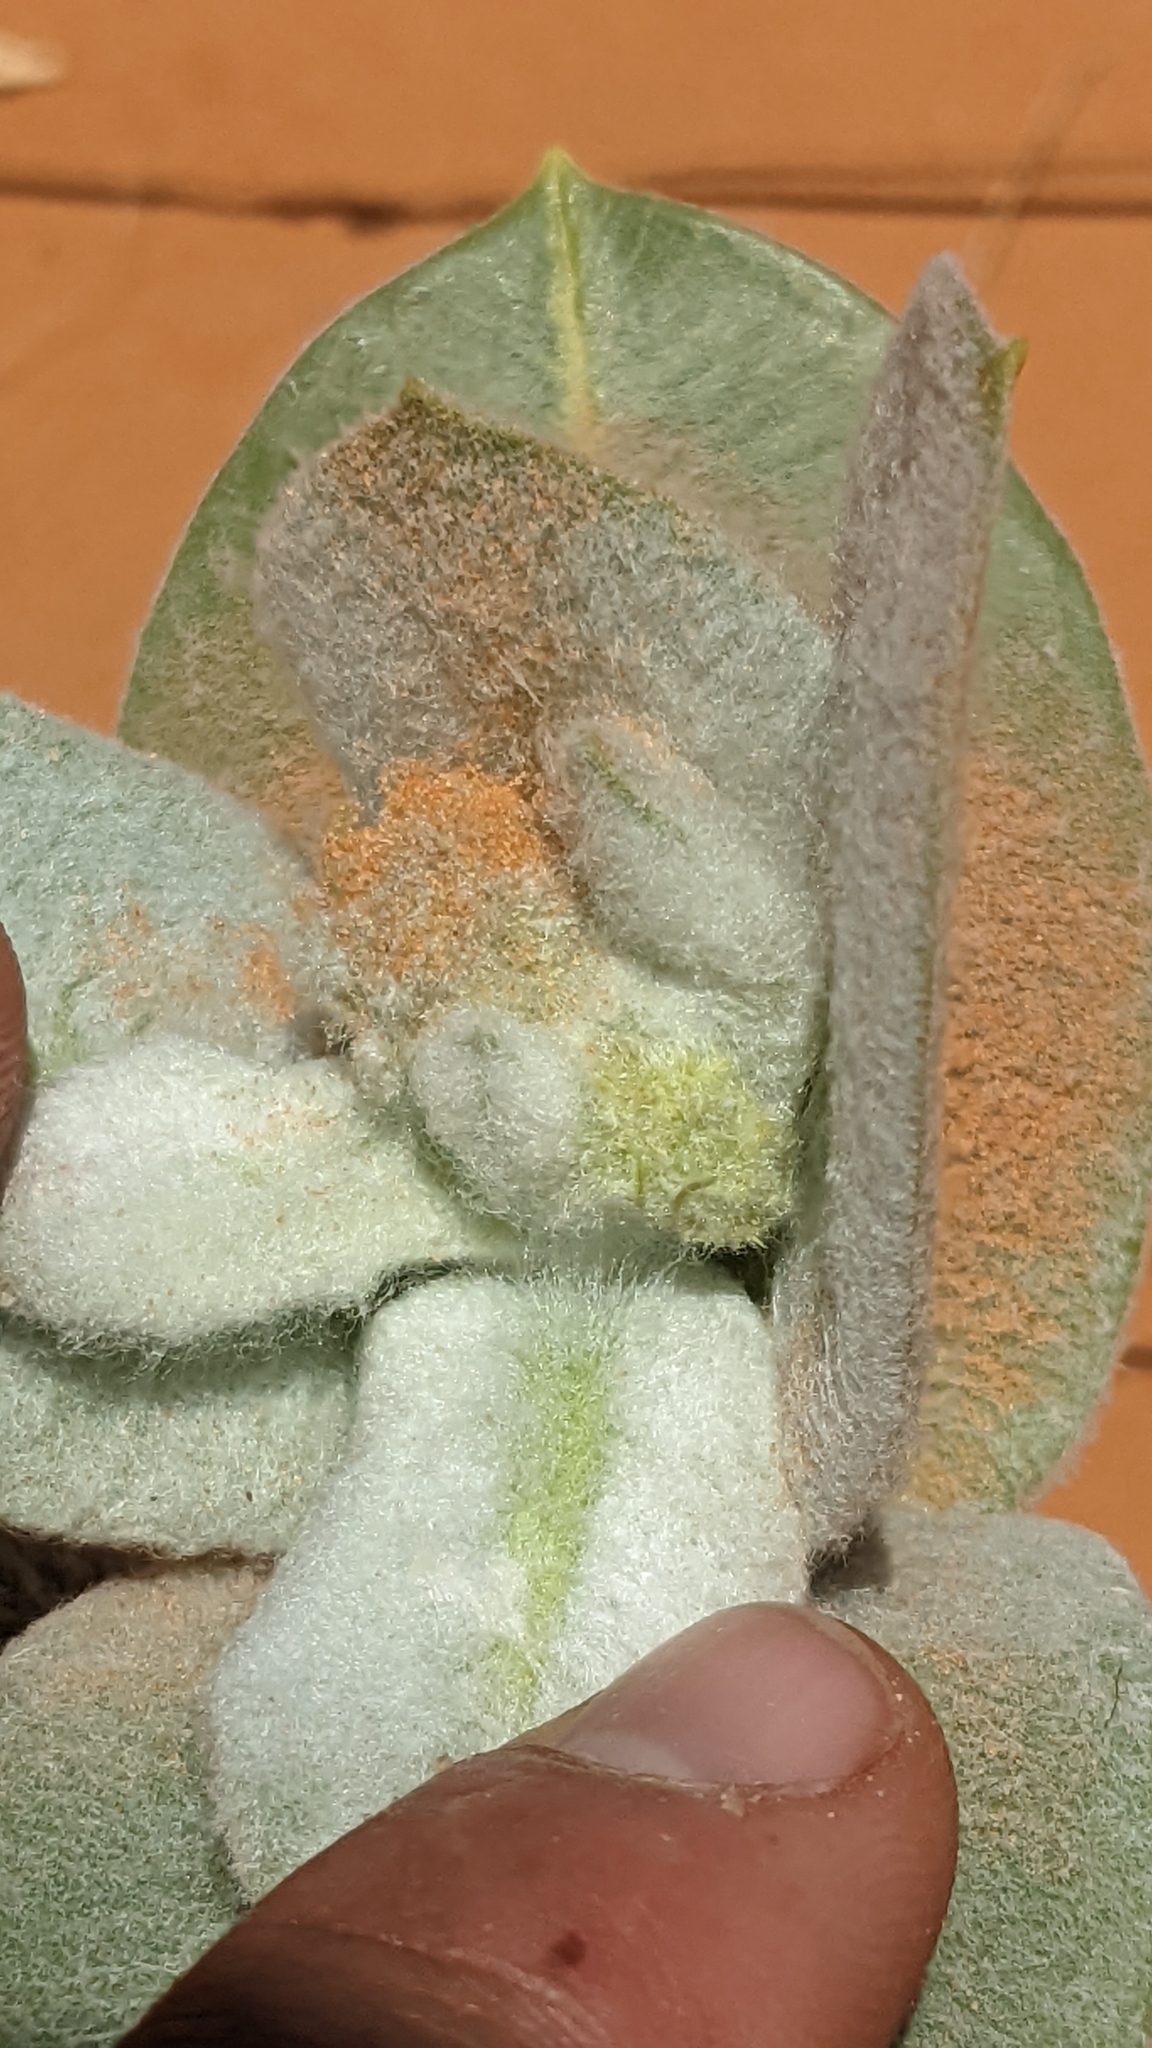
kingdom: Plantae
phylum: Tracheophyta
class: Magnoliopsida
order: Gentianales
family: Apocynaceae
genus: Asclepias
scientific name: Asclepias welshii
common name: Welsch's milkweed
